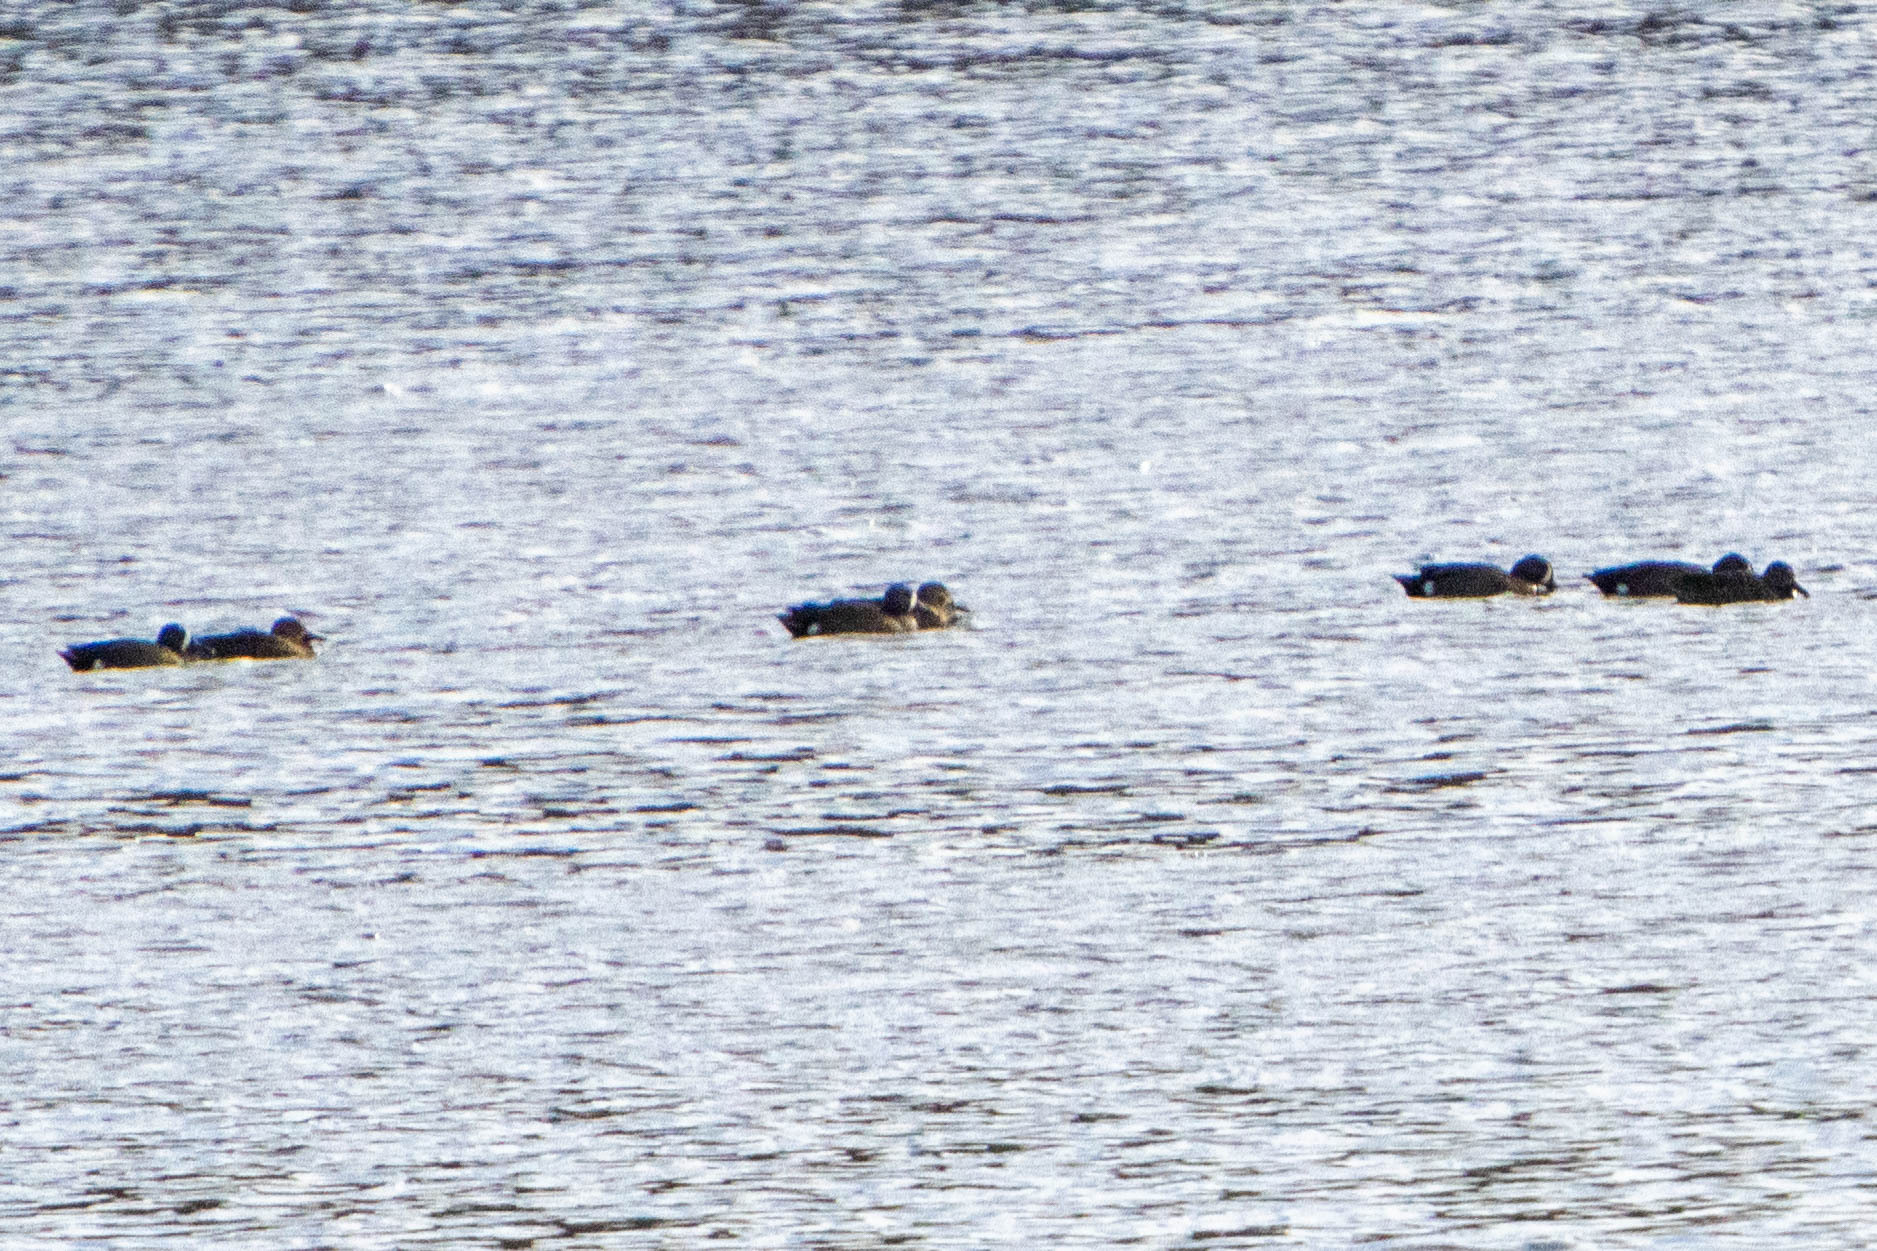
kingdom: Animalia
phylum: Chordata
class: Aves
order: Anseriformes
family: Anatidae
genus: Spatula
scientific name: Spatula discors
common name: Blue-winged teal
